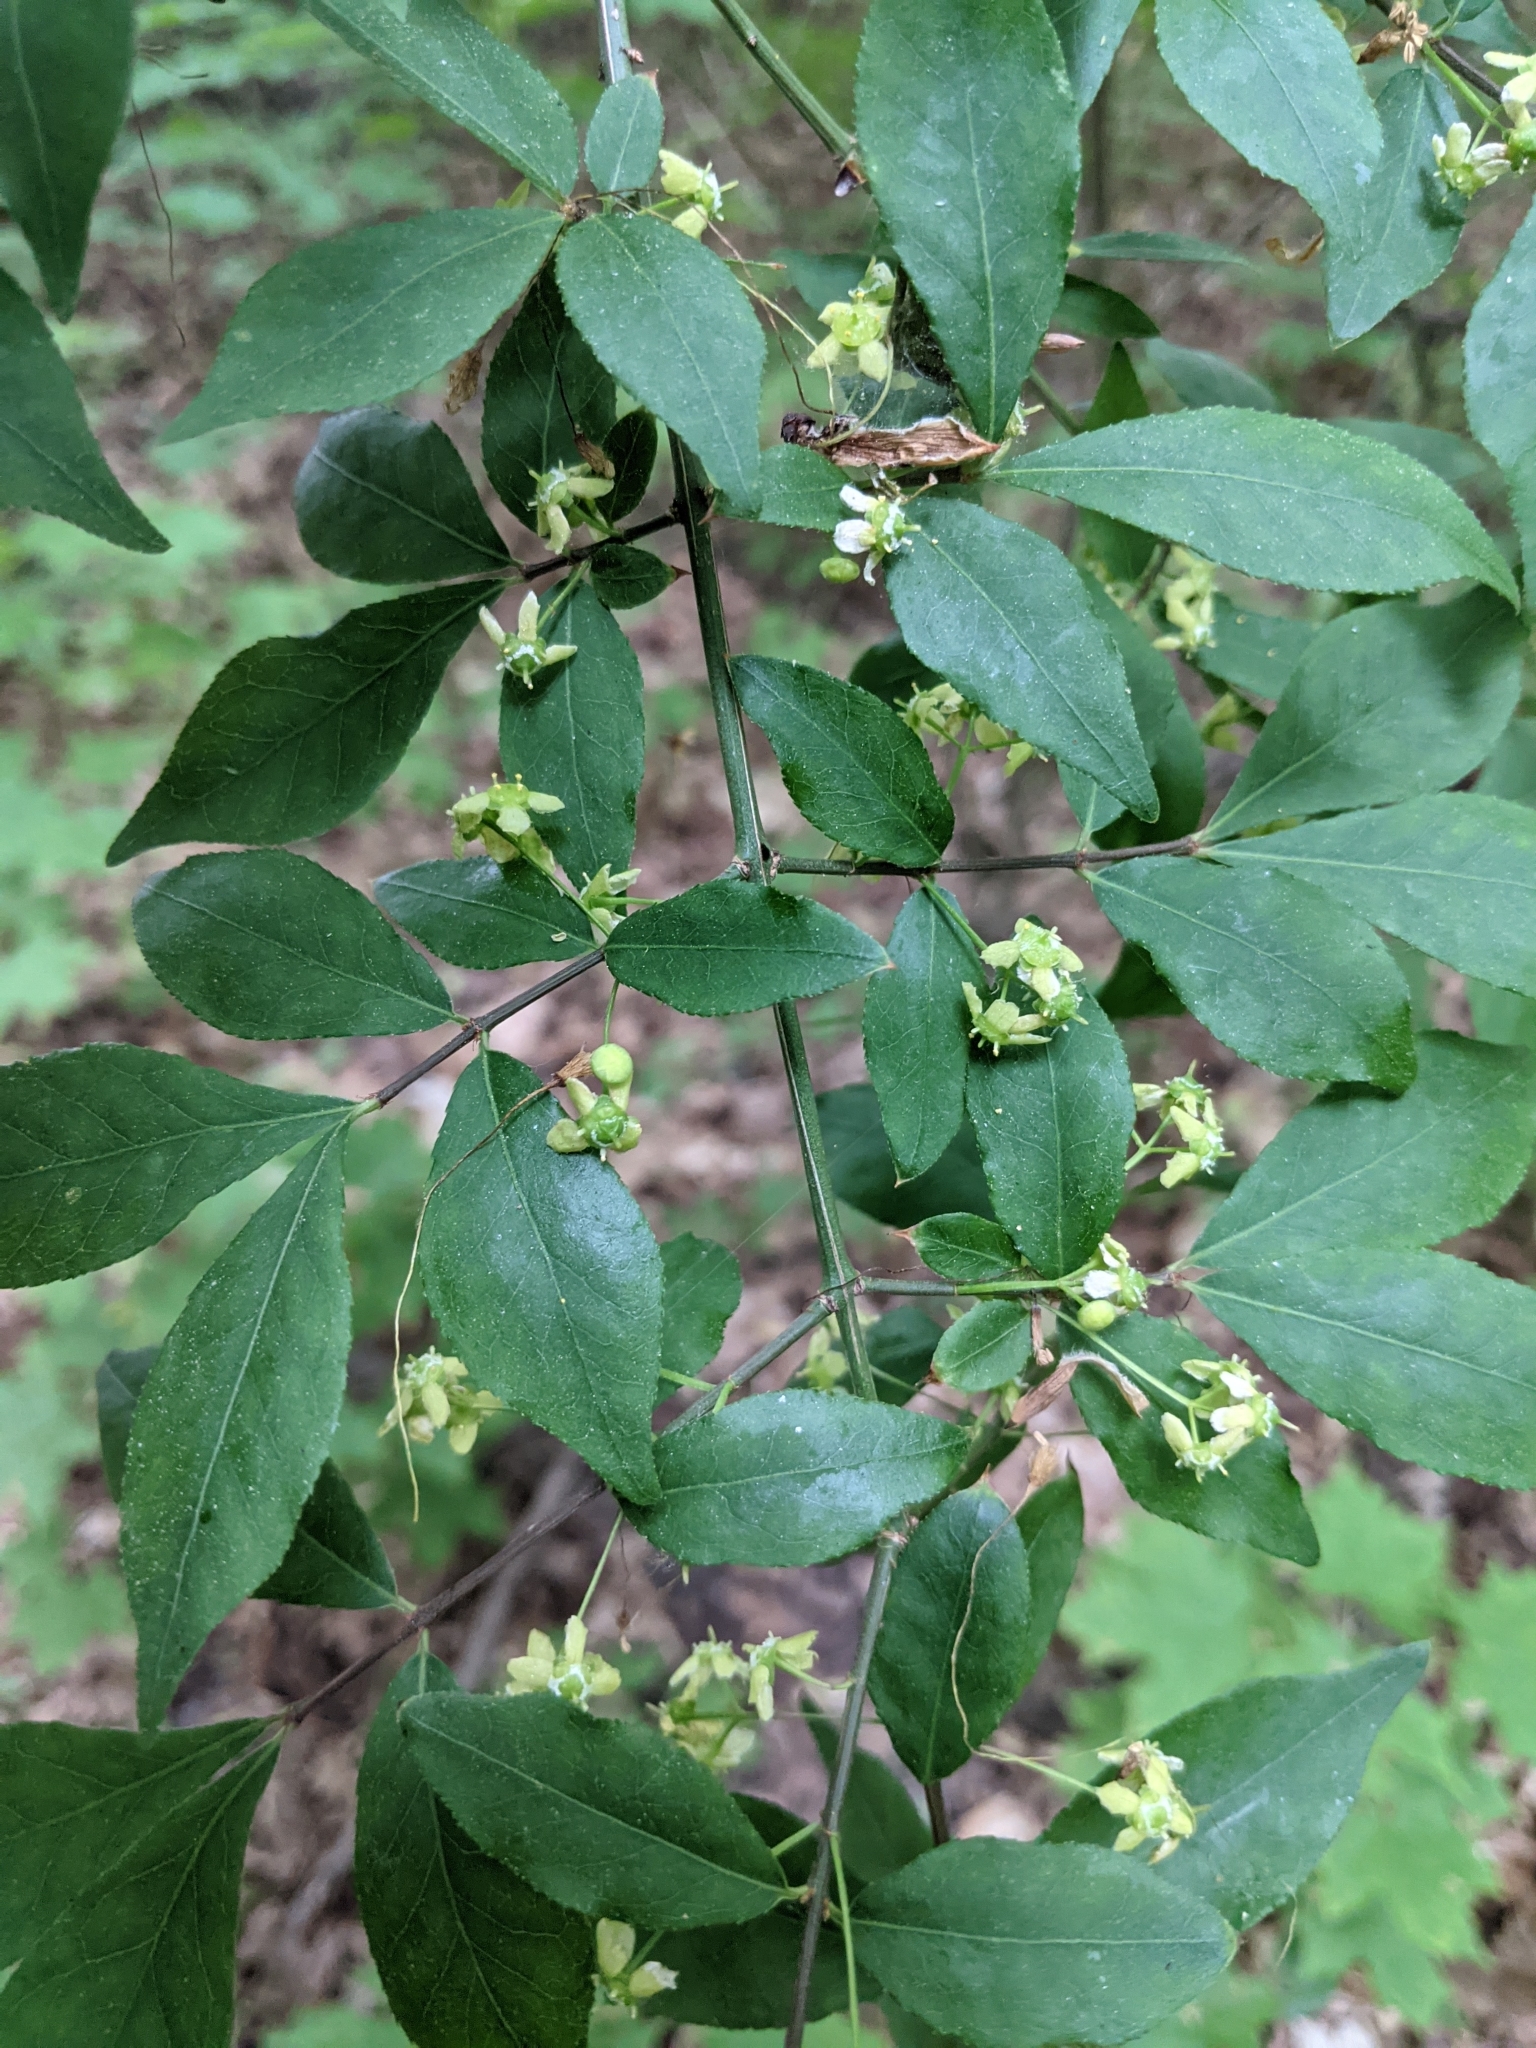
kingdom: Plantae
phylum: Tracheophyta
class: Magnoliopsida
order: Celastrales
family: Celastraceae
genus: Euonymus
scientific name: Euonymus alatus
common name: Winged euonymus
